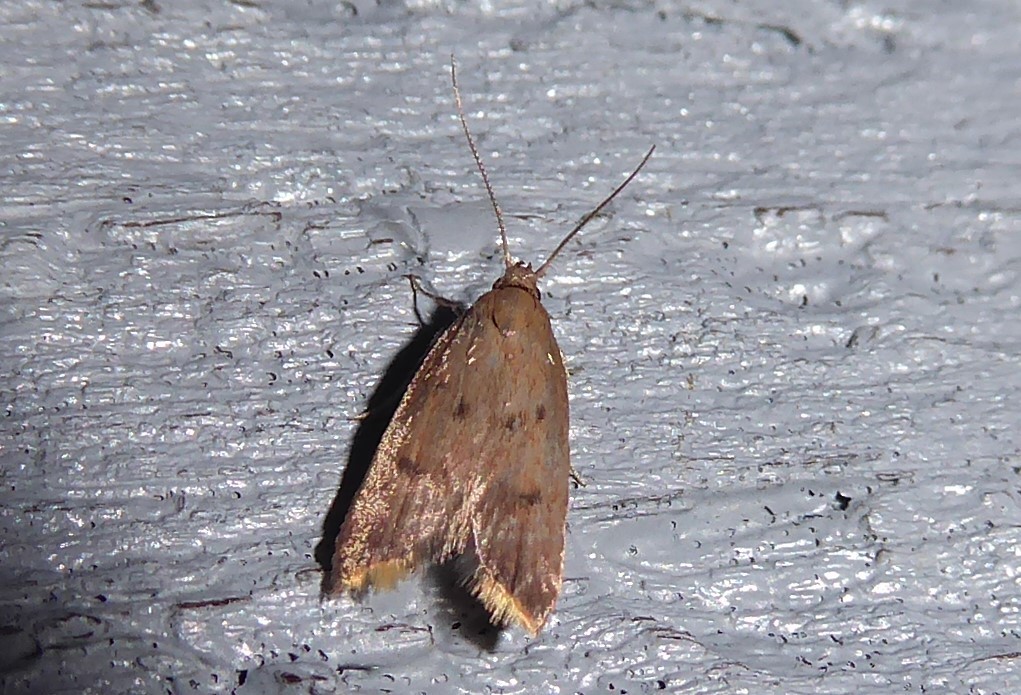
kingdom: Animalia
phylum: Arthropoda
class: Insecta
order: Lepidoptera
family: Oecophoridae
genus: Tachystola
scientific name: Tachystola acroxantha
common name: Ruddy streak
